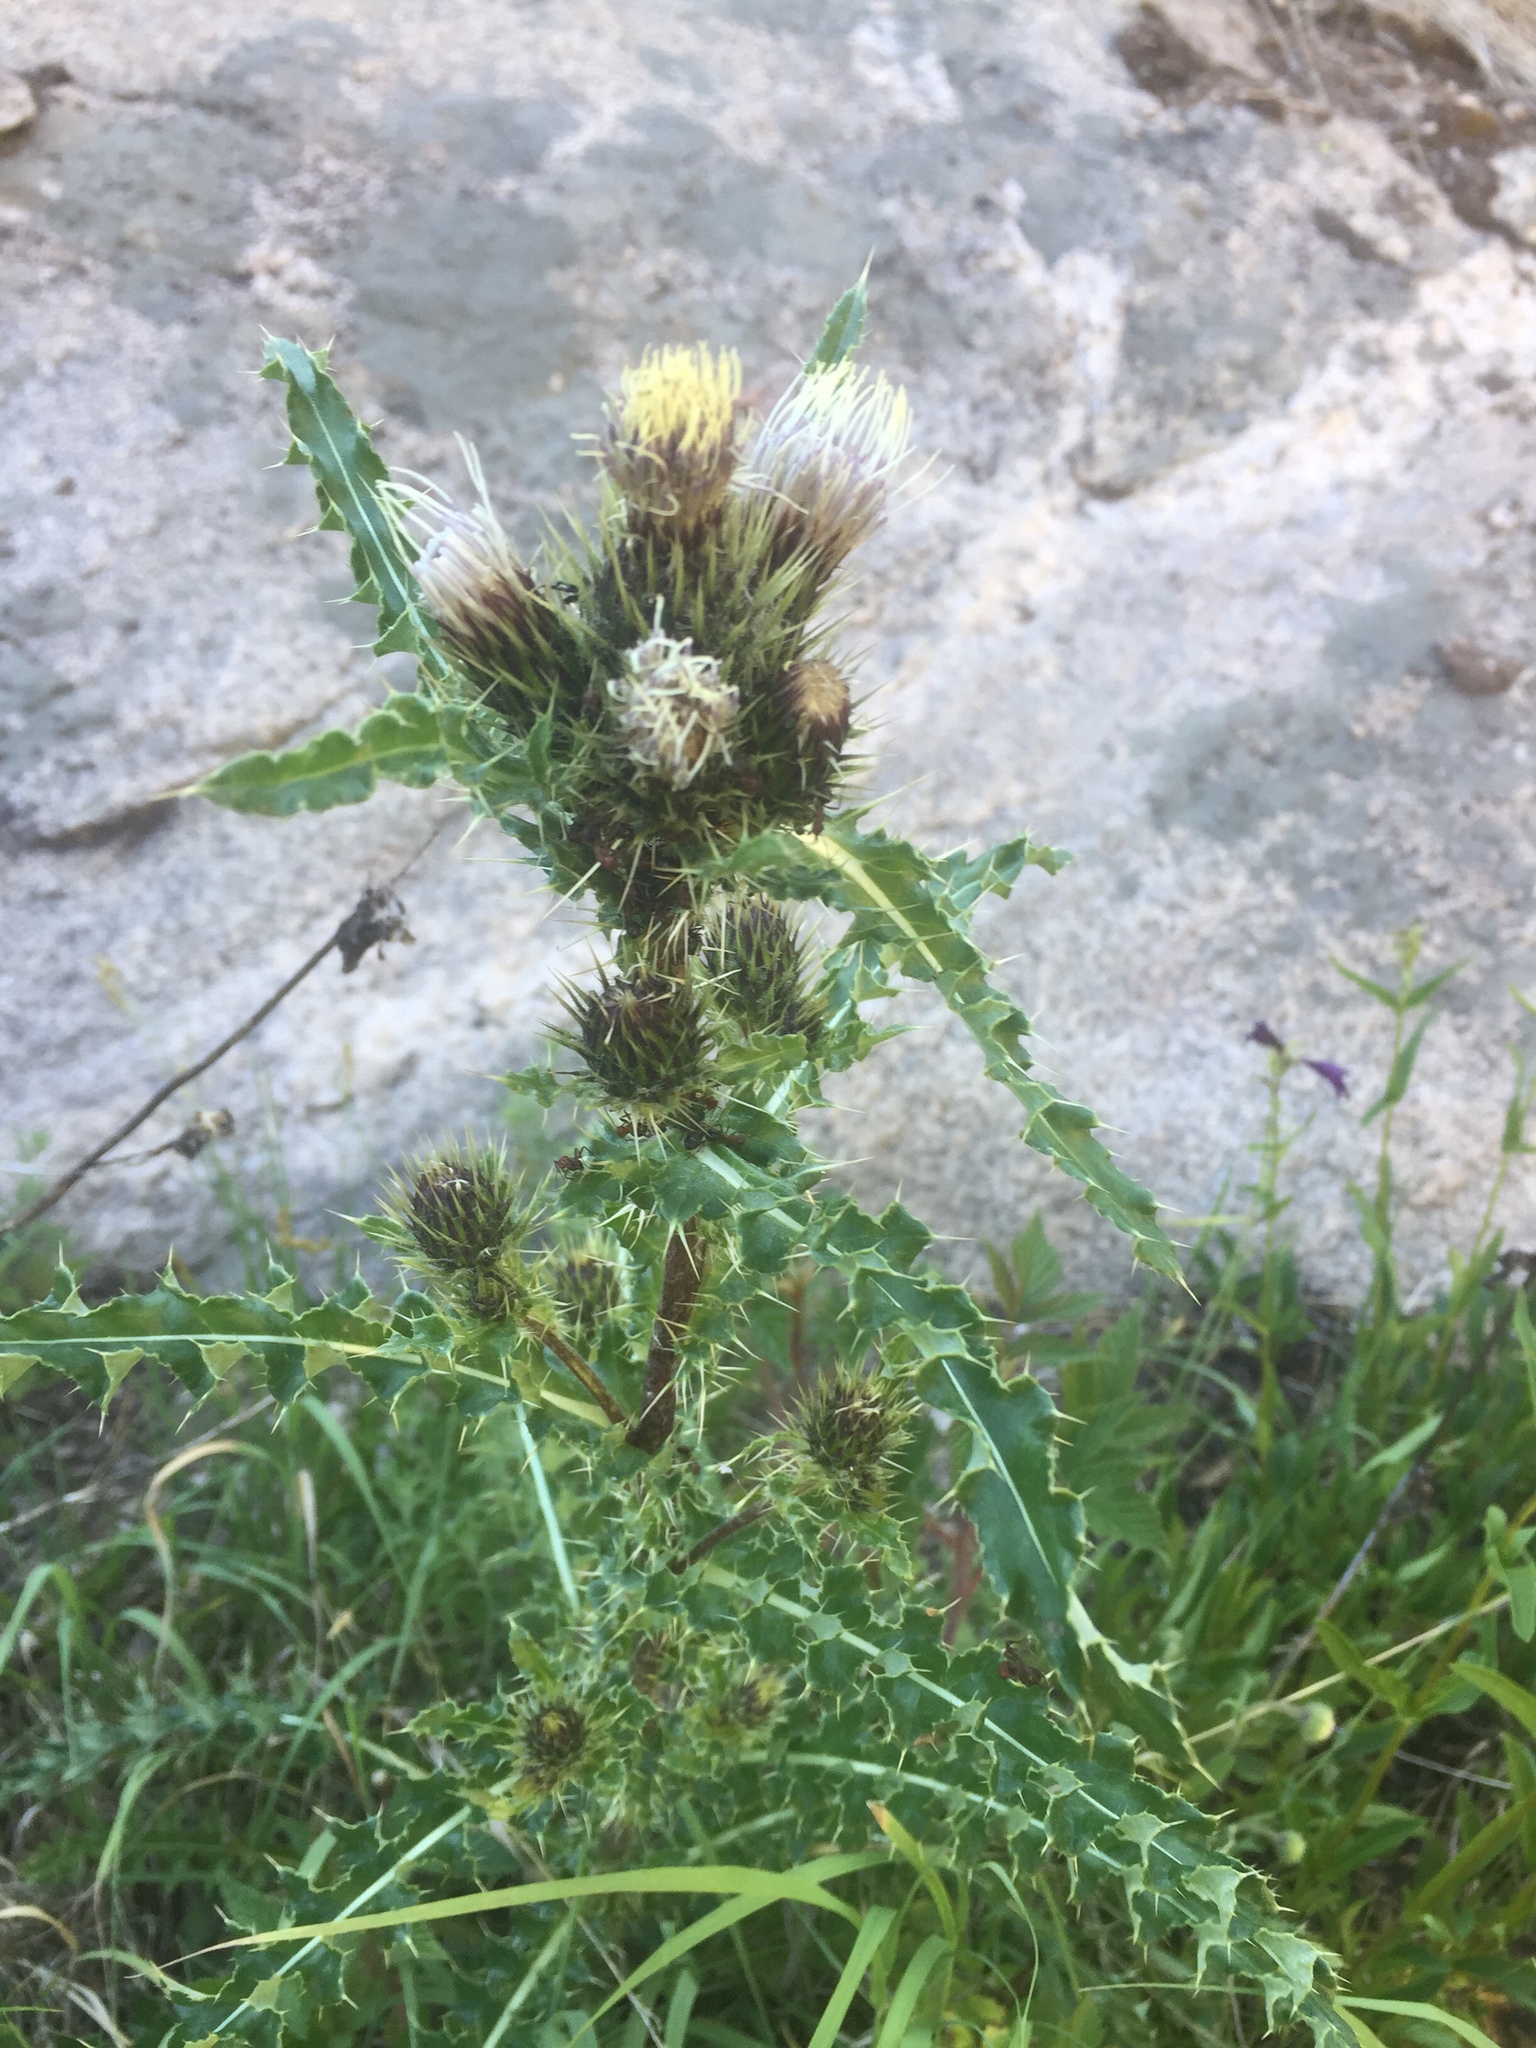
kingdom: Plantae
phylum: Tracheophyta
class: Magnoliopsida
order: Asterales
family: Asteraceae
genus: Cirsium
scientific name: Cirsium griseum
